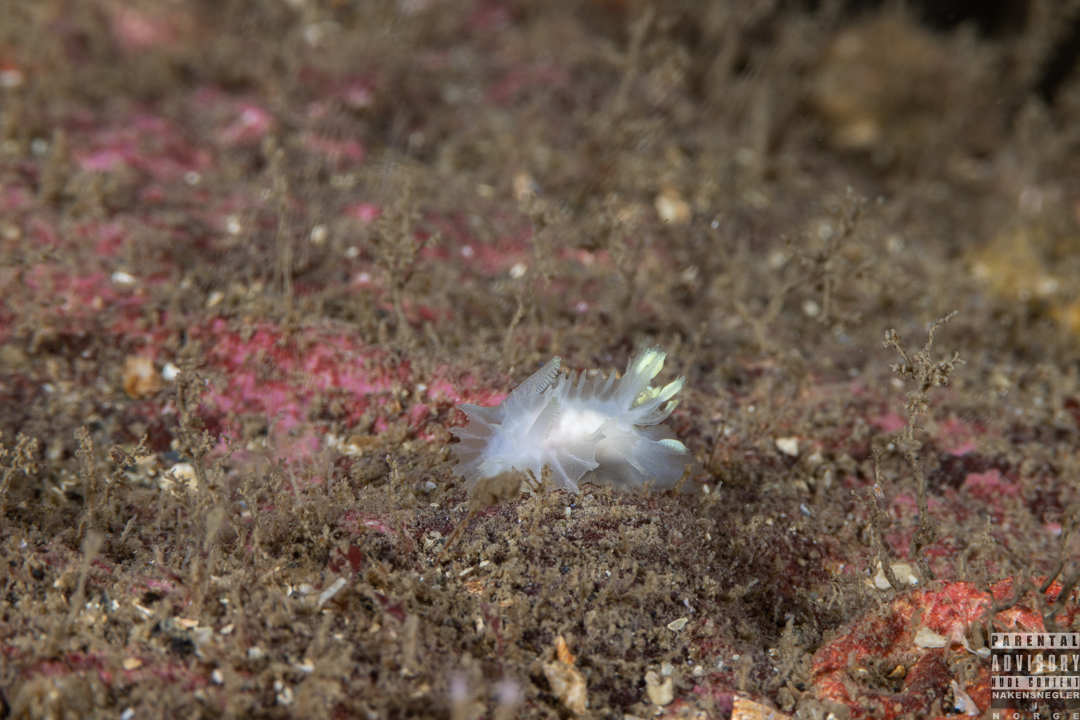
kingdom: Animalia
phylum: Mollusca
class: Gastropoda
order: Nudibranchia
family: Goniodorididae
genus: Lophodoris
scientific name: Lophodoris danielsseni
